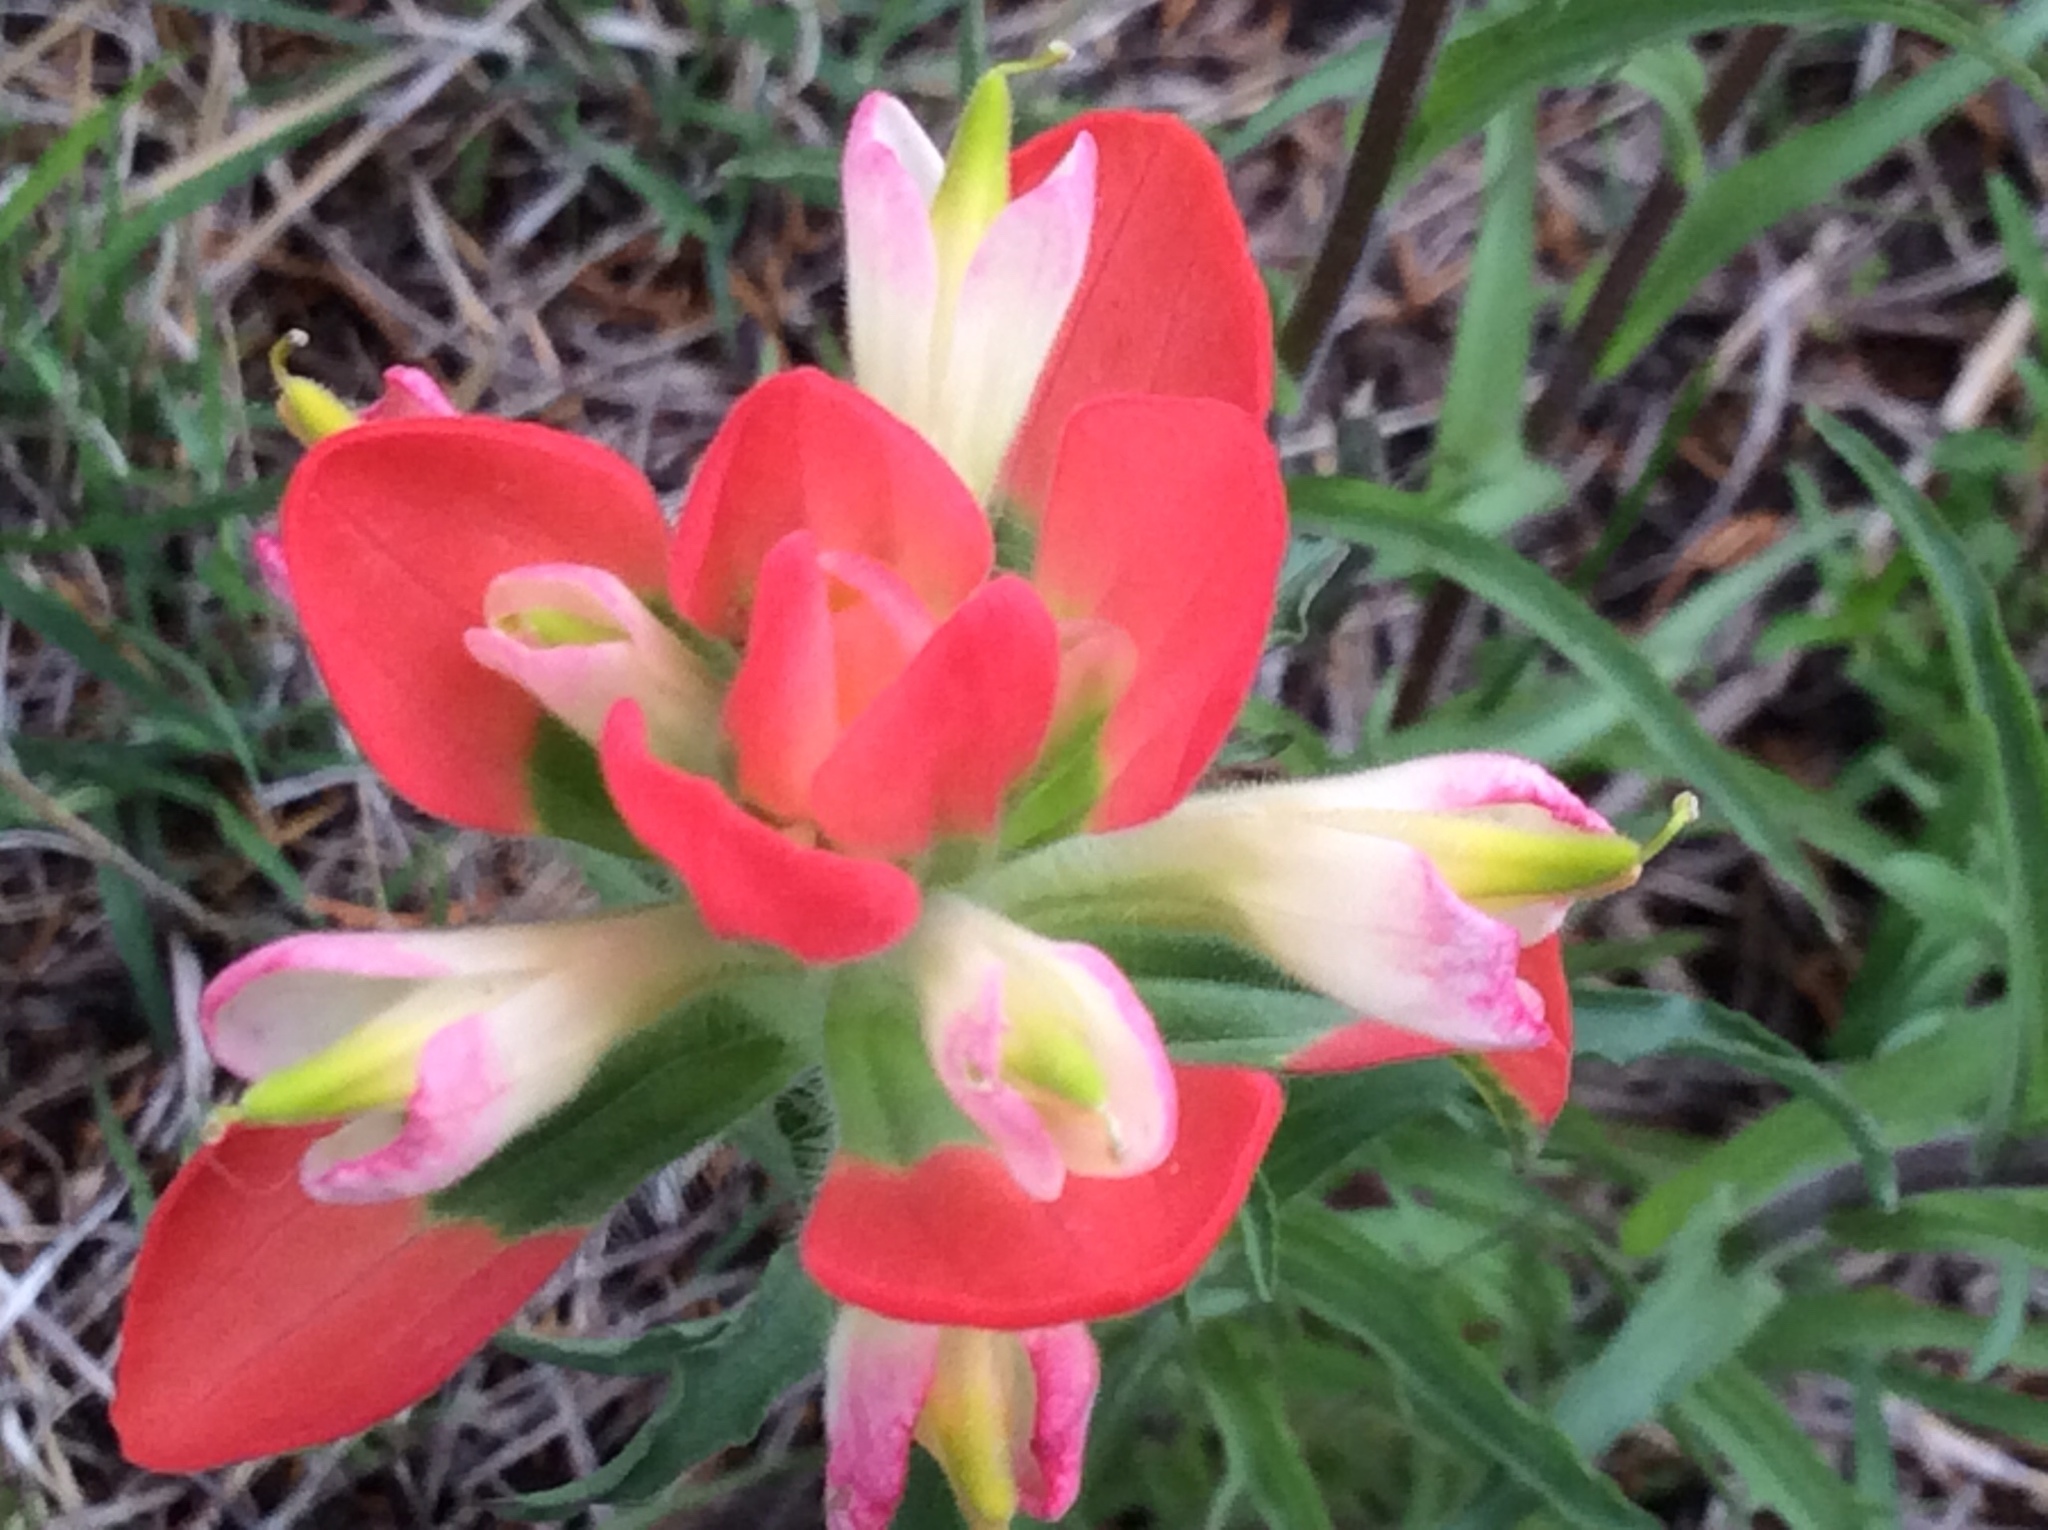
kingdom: Plantae
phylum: Tracheophyta
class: Magnoliopsida
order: Lamiales
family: Orobanchaceae
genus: Castilleja
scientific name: Castilleja indivisa
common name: Texas paintbrush
